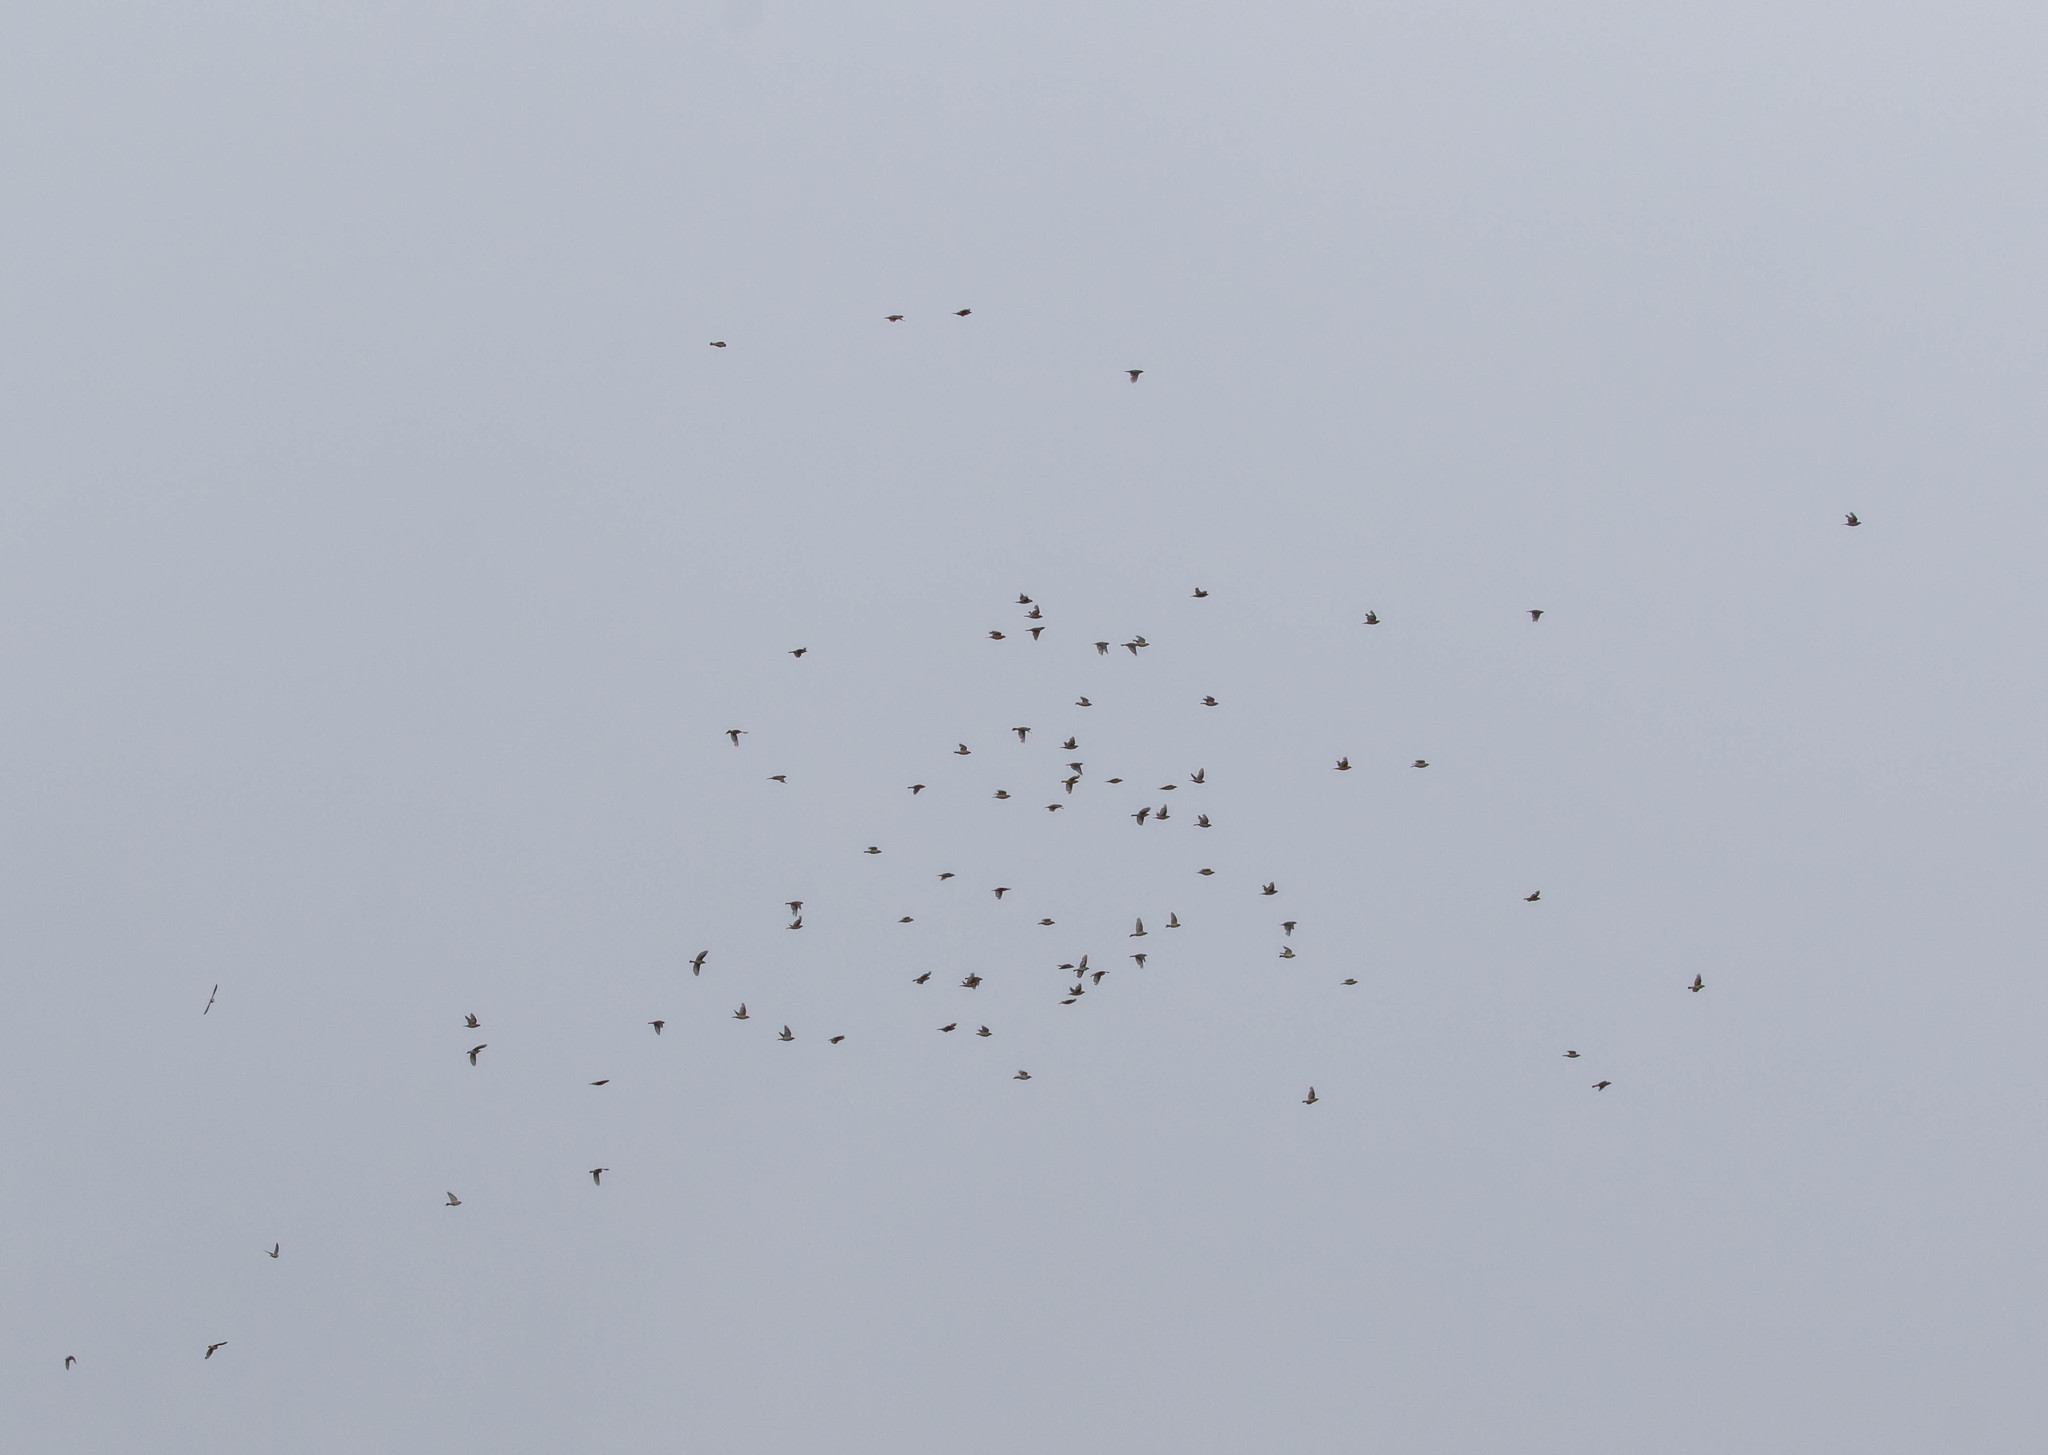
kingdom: Animalia
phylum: Chordata
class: Aves
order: Passeriformes
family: Bombycillidae
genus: Bombycilla
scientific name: Bombycilla cedrorum
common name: Cedar waxwing
